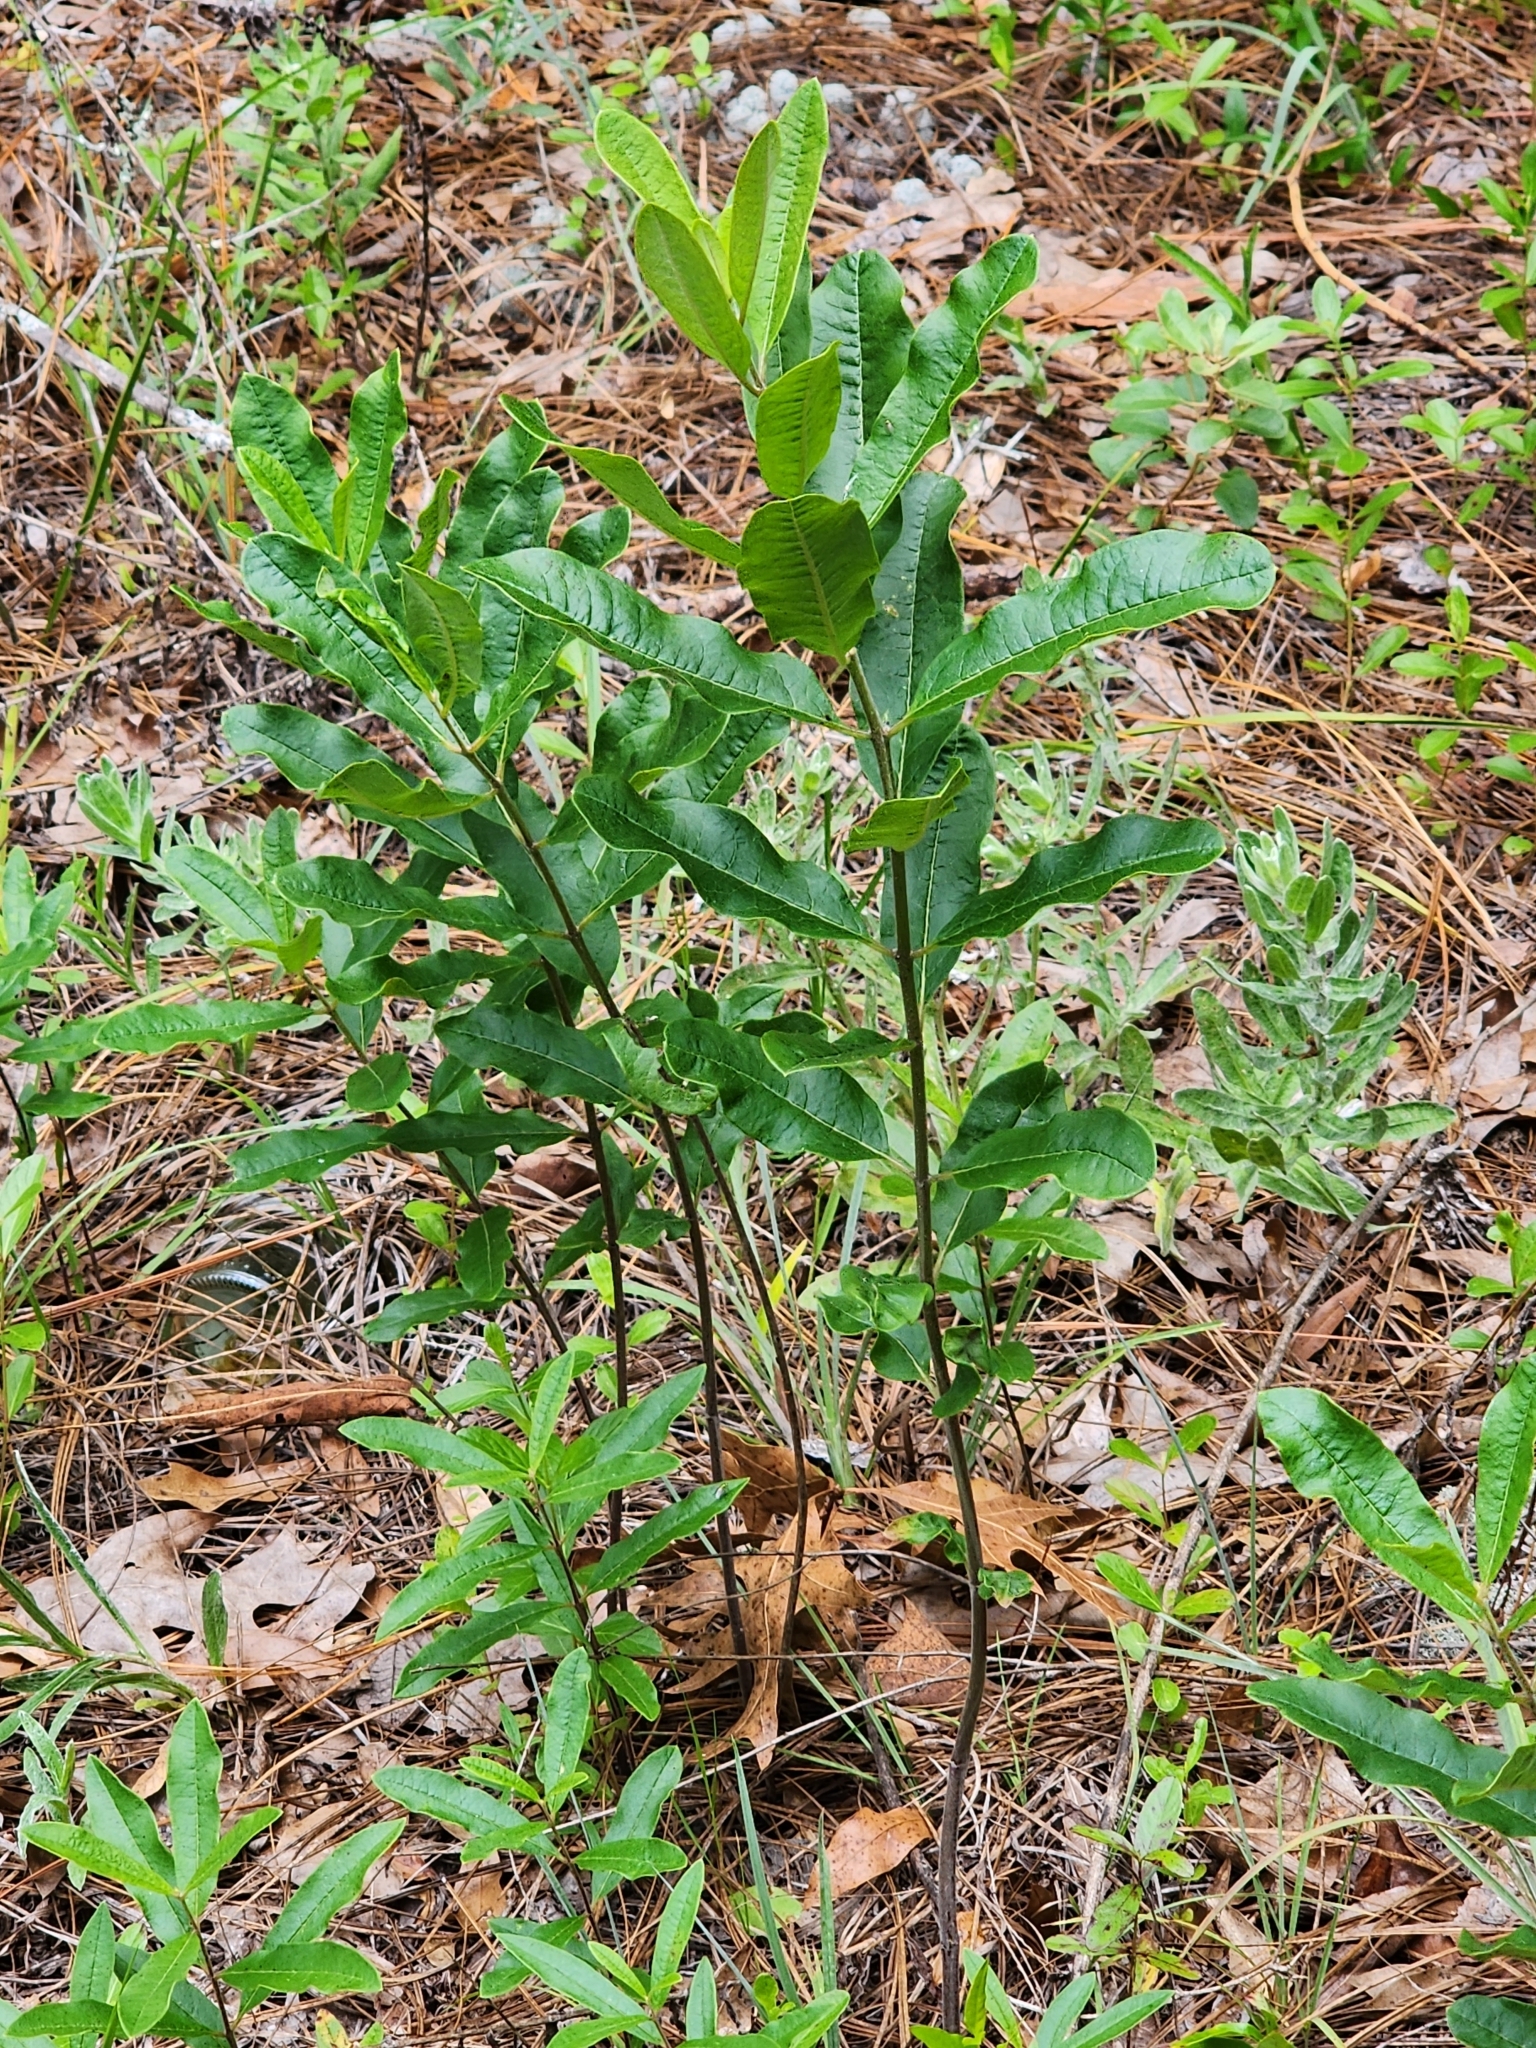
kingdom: Plantae
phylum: Tracheophyta
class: Magnoliopsida
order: Gentianales
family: Apocynaceae
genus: Asclepias
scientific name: Asclepias tomentosa
